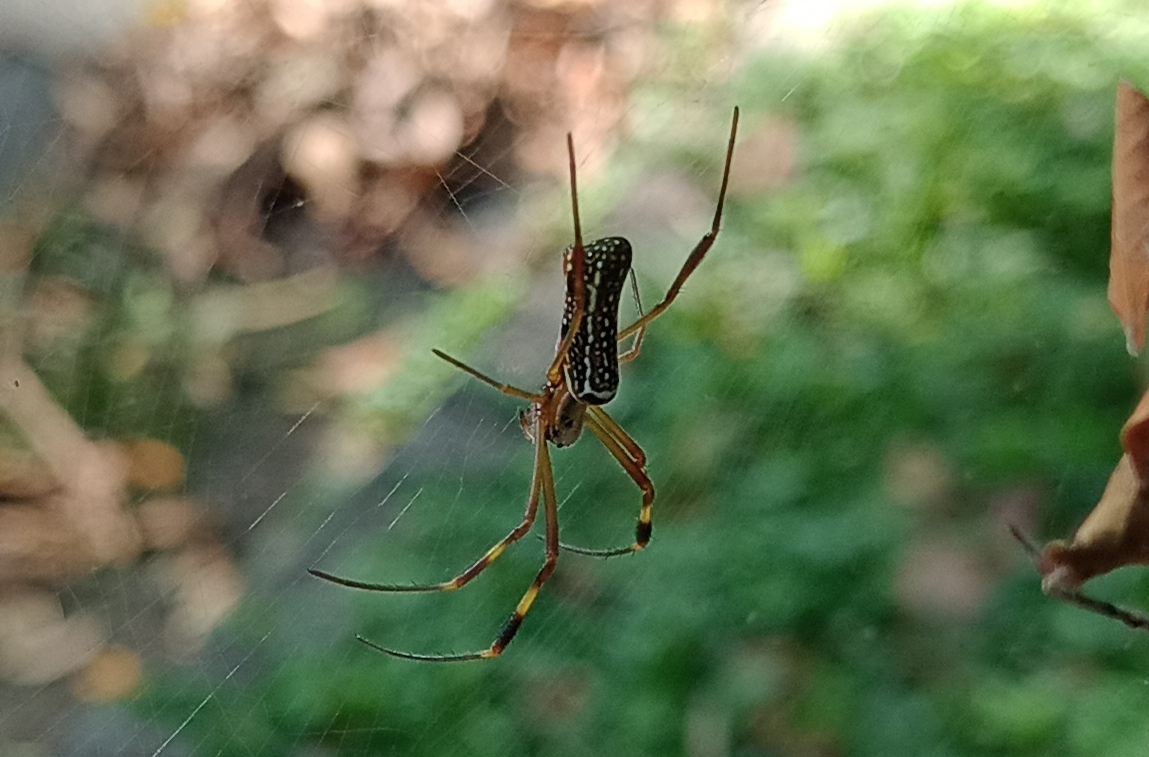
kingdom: Animalia
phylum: Arthropoda
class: Arachnida
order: Araneae
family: Araneidae
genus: Trichonephila
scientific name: Trichonephila clavipes
